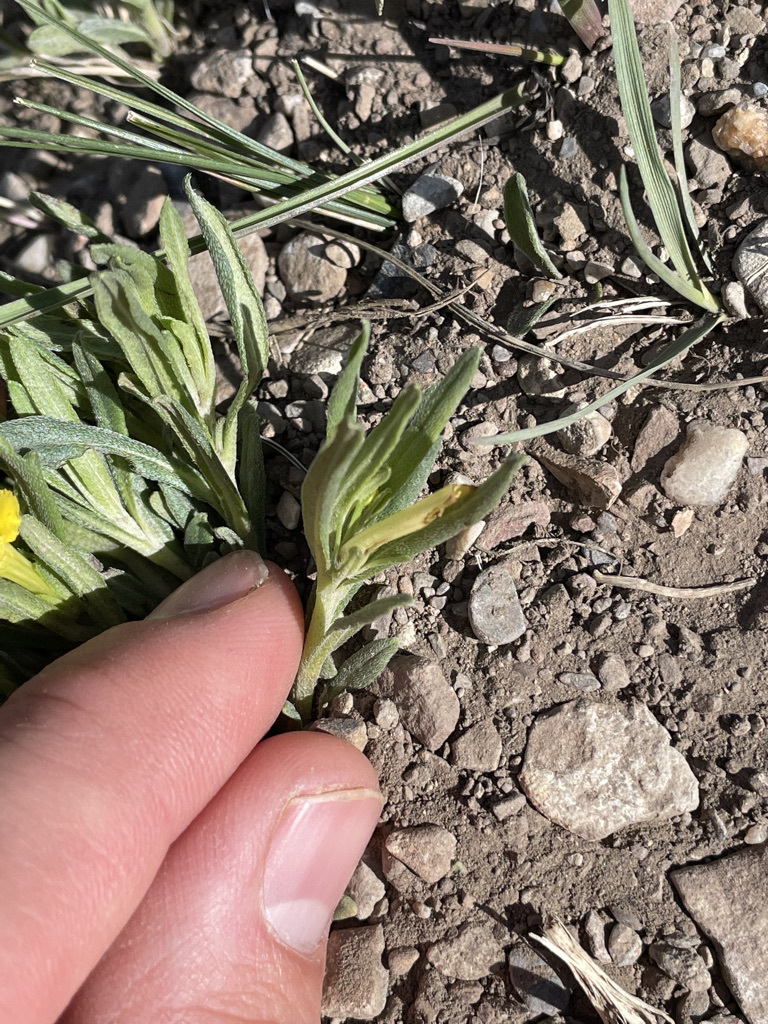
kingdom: Plantae
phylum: Tracheophyta
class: Magnoliopsida
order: Boraginales
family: Boraginaceae
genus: Lithospermum
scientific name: Lithospermum incisum
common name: Fringed gromwell
